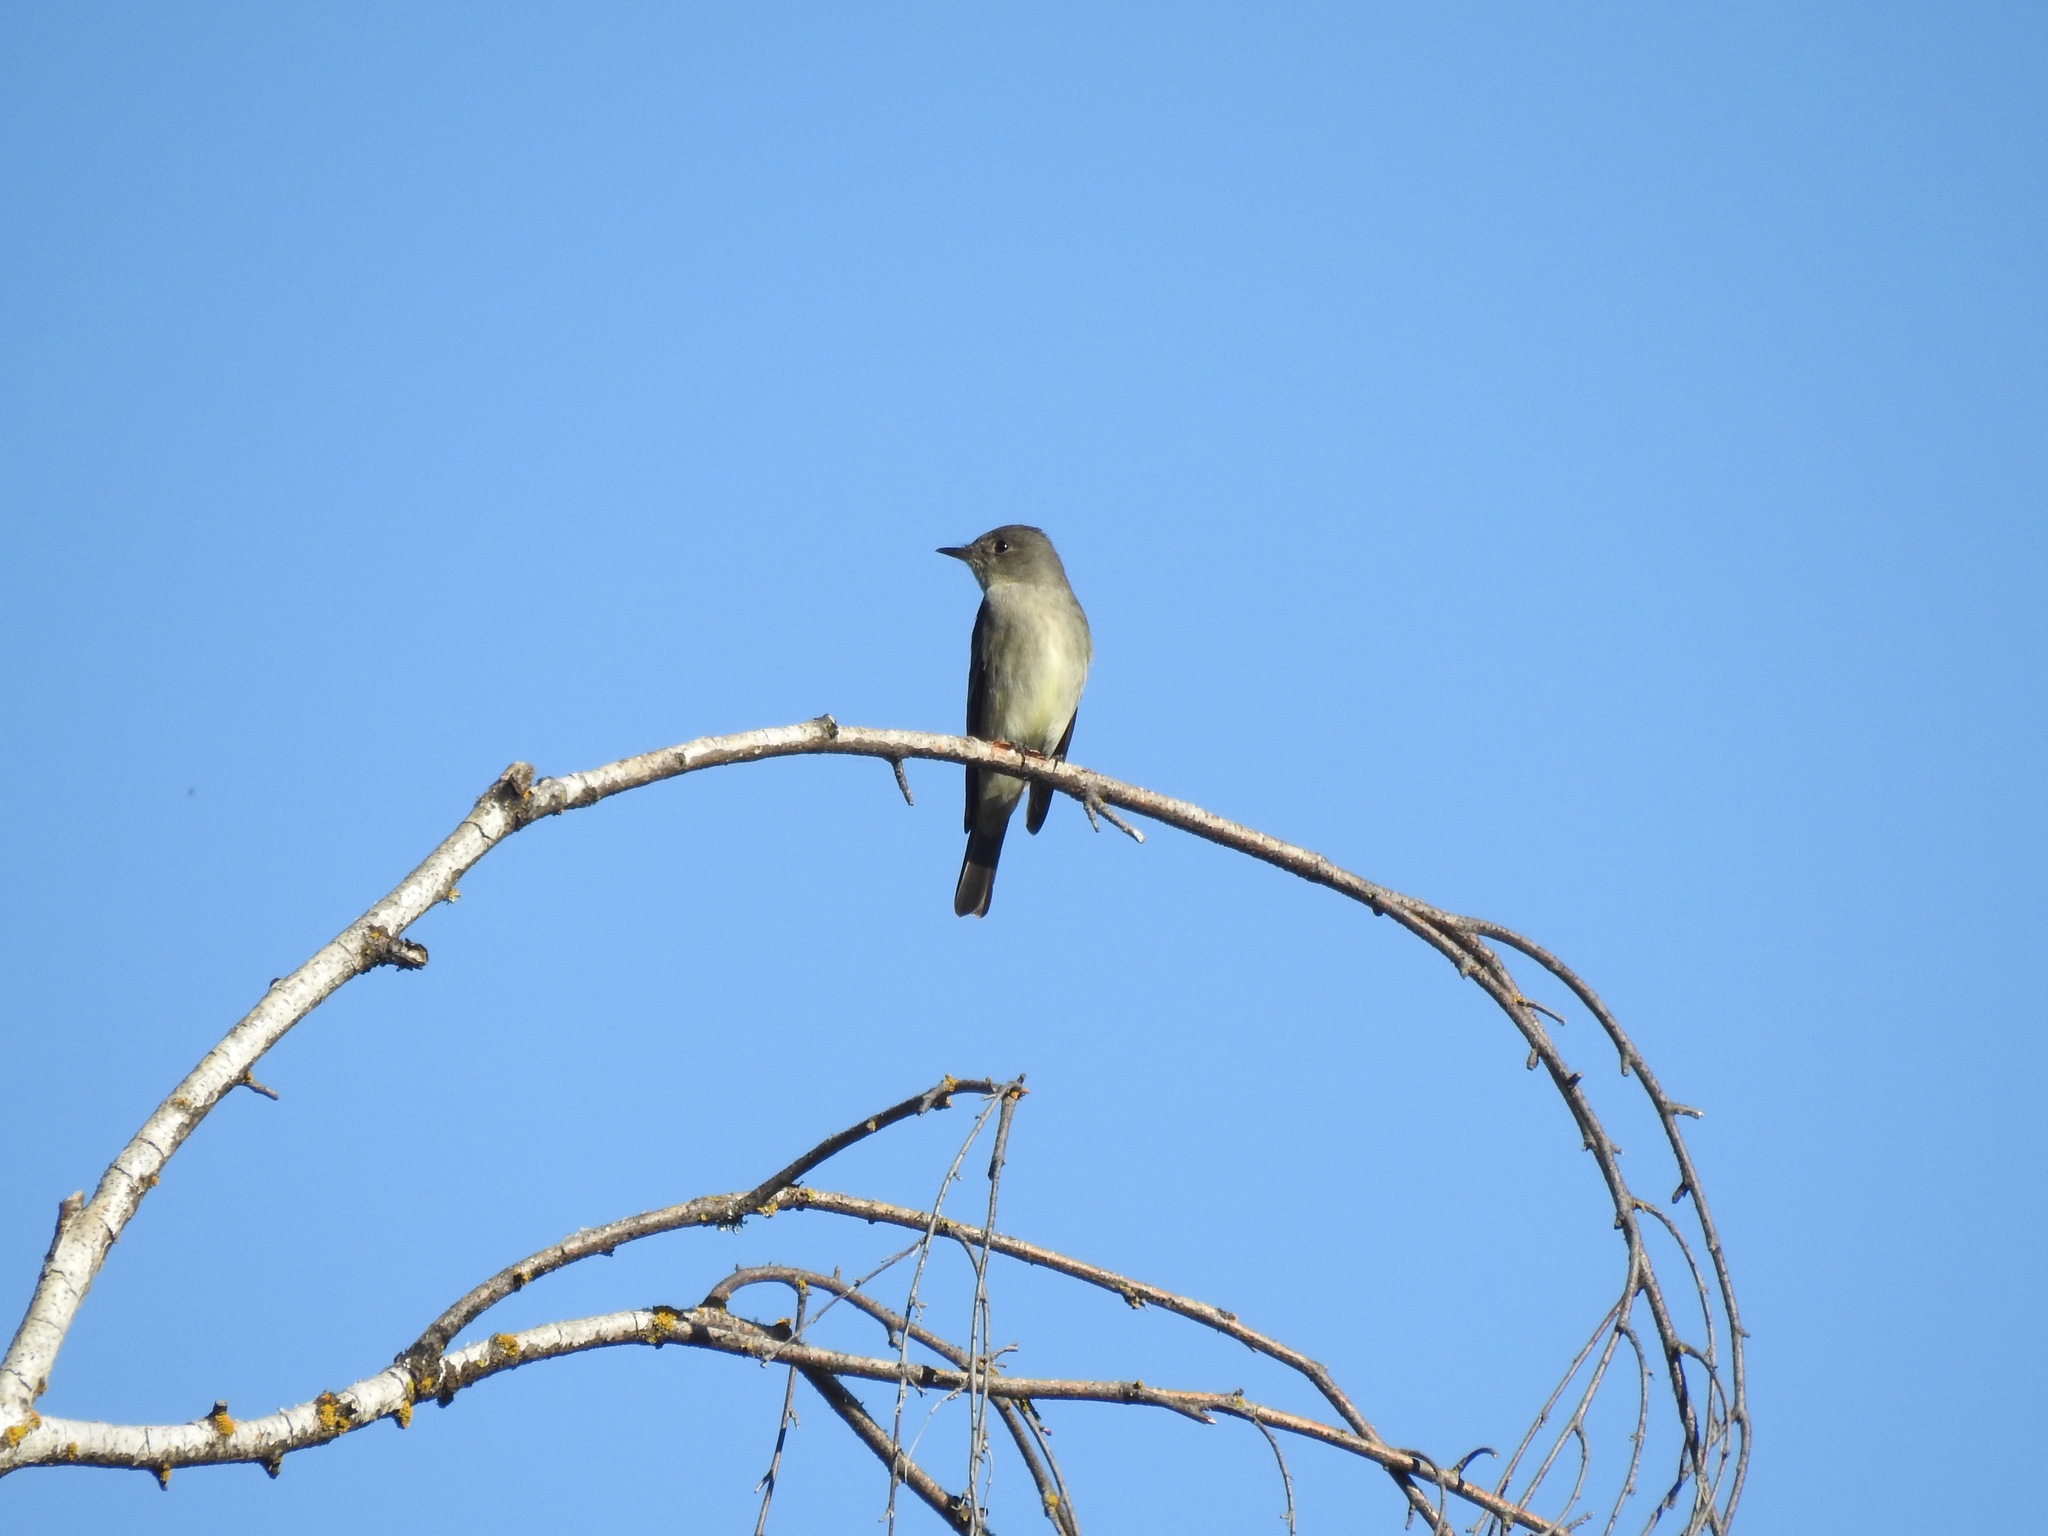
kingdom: Animalia
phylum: Chordata
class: Aves
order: Passeriformes
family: Tyrannidae
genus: Contopus
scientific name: Contopus sordidulus
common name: Western wood-pewee
